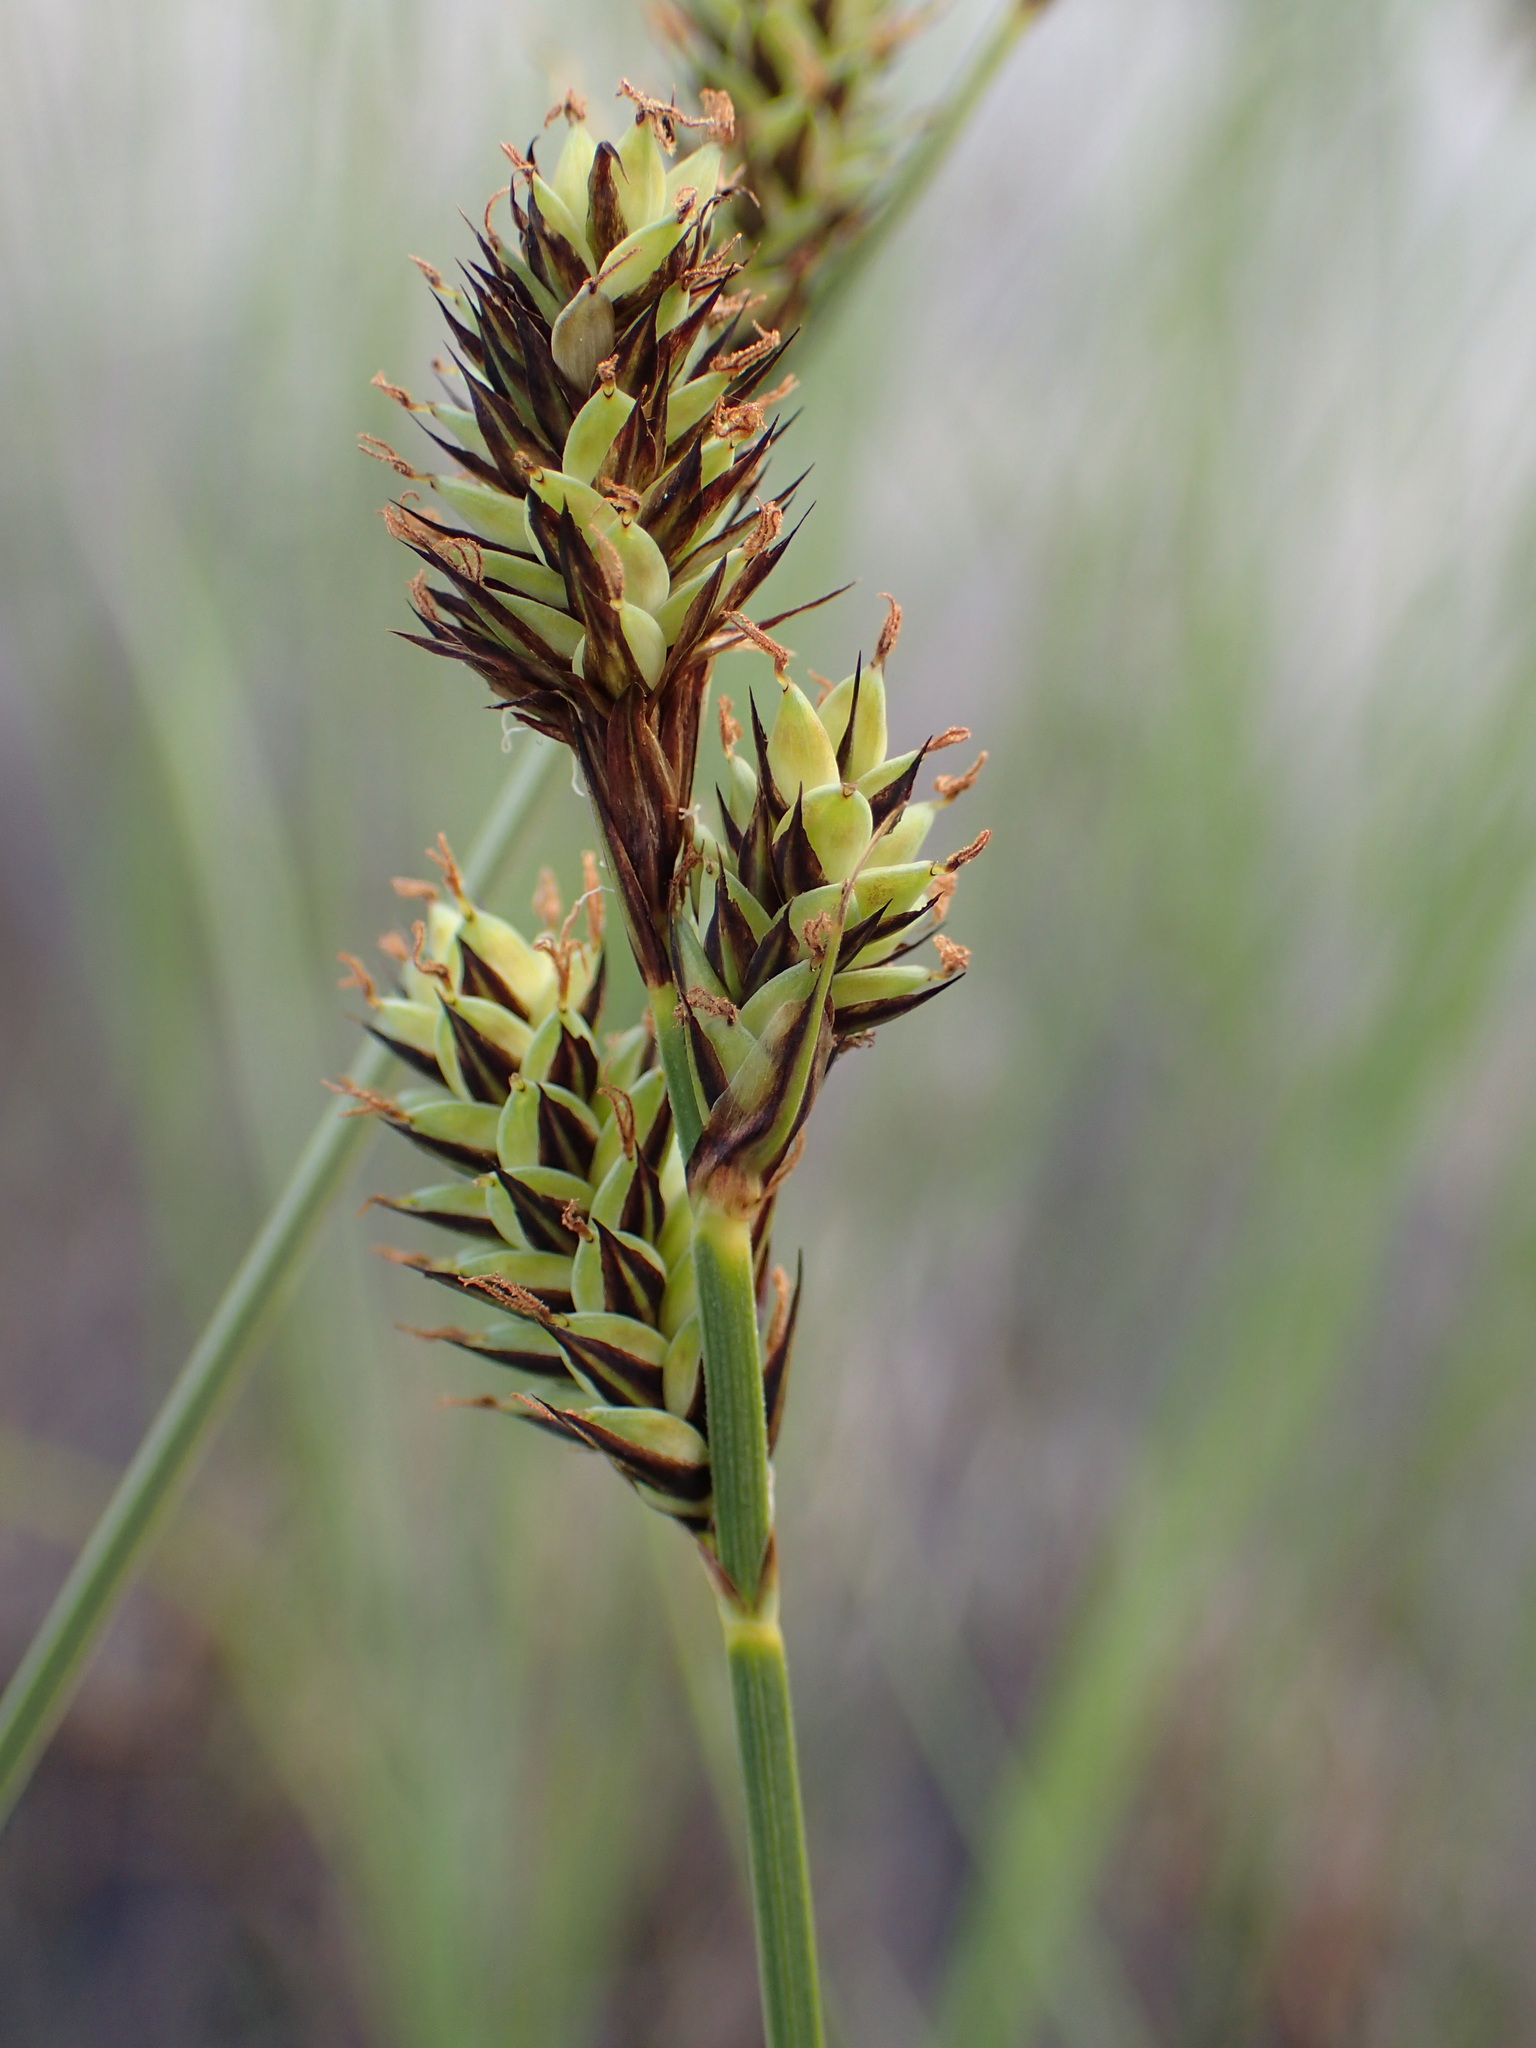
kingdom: Plantae
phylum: Tracheophyta
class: Liliopsida
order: Poales
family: Cyperaceae
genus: Carex
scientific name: Carex buxbaumii
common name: Club sedge
